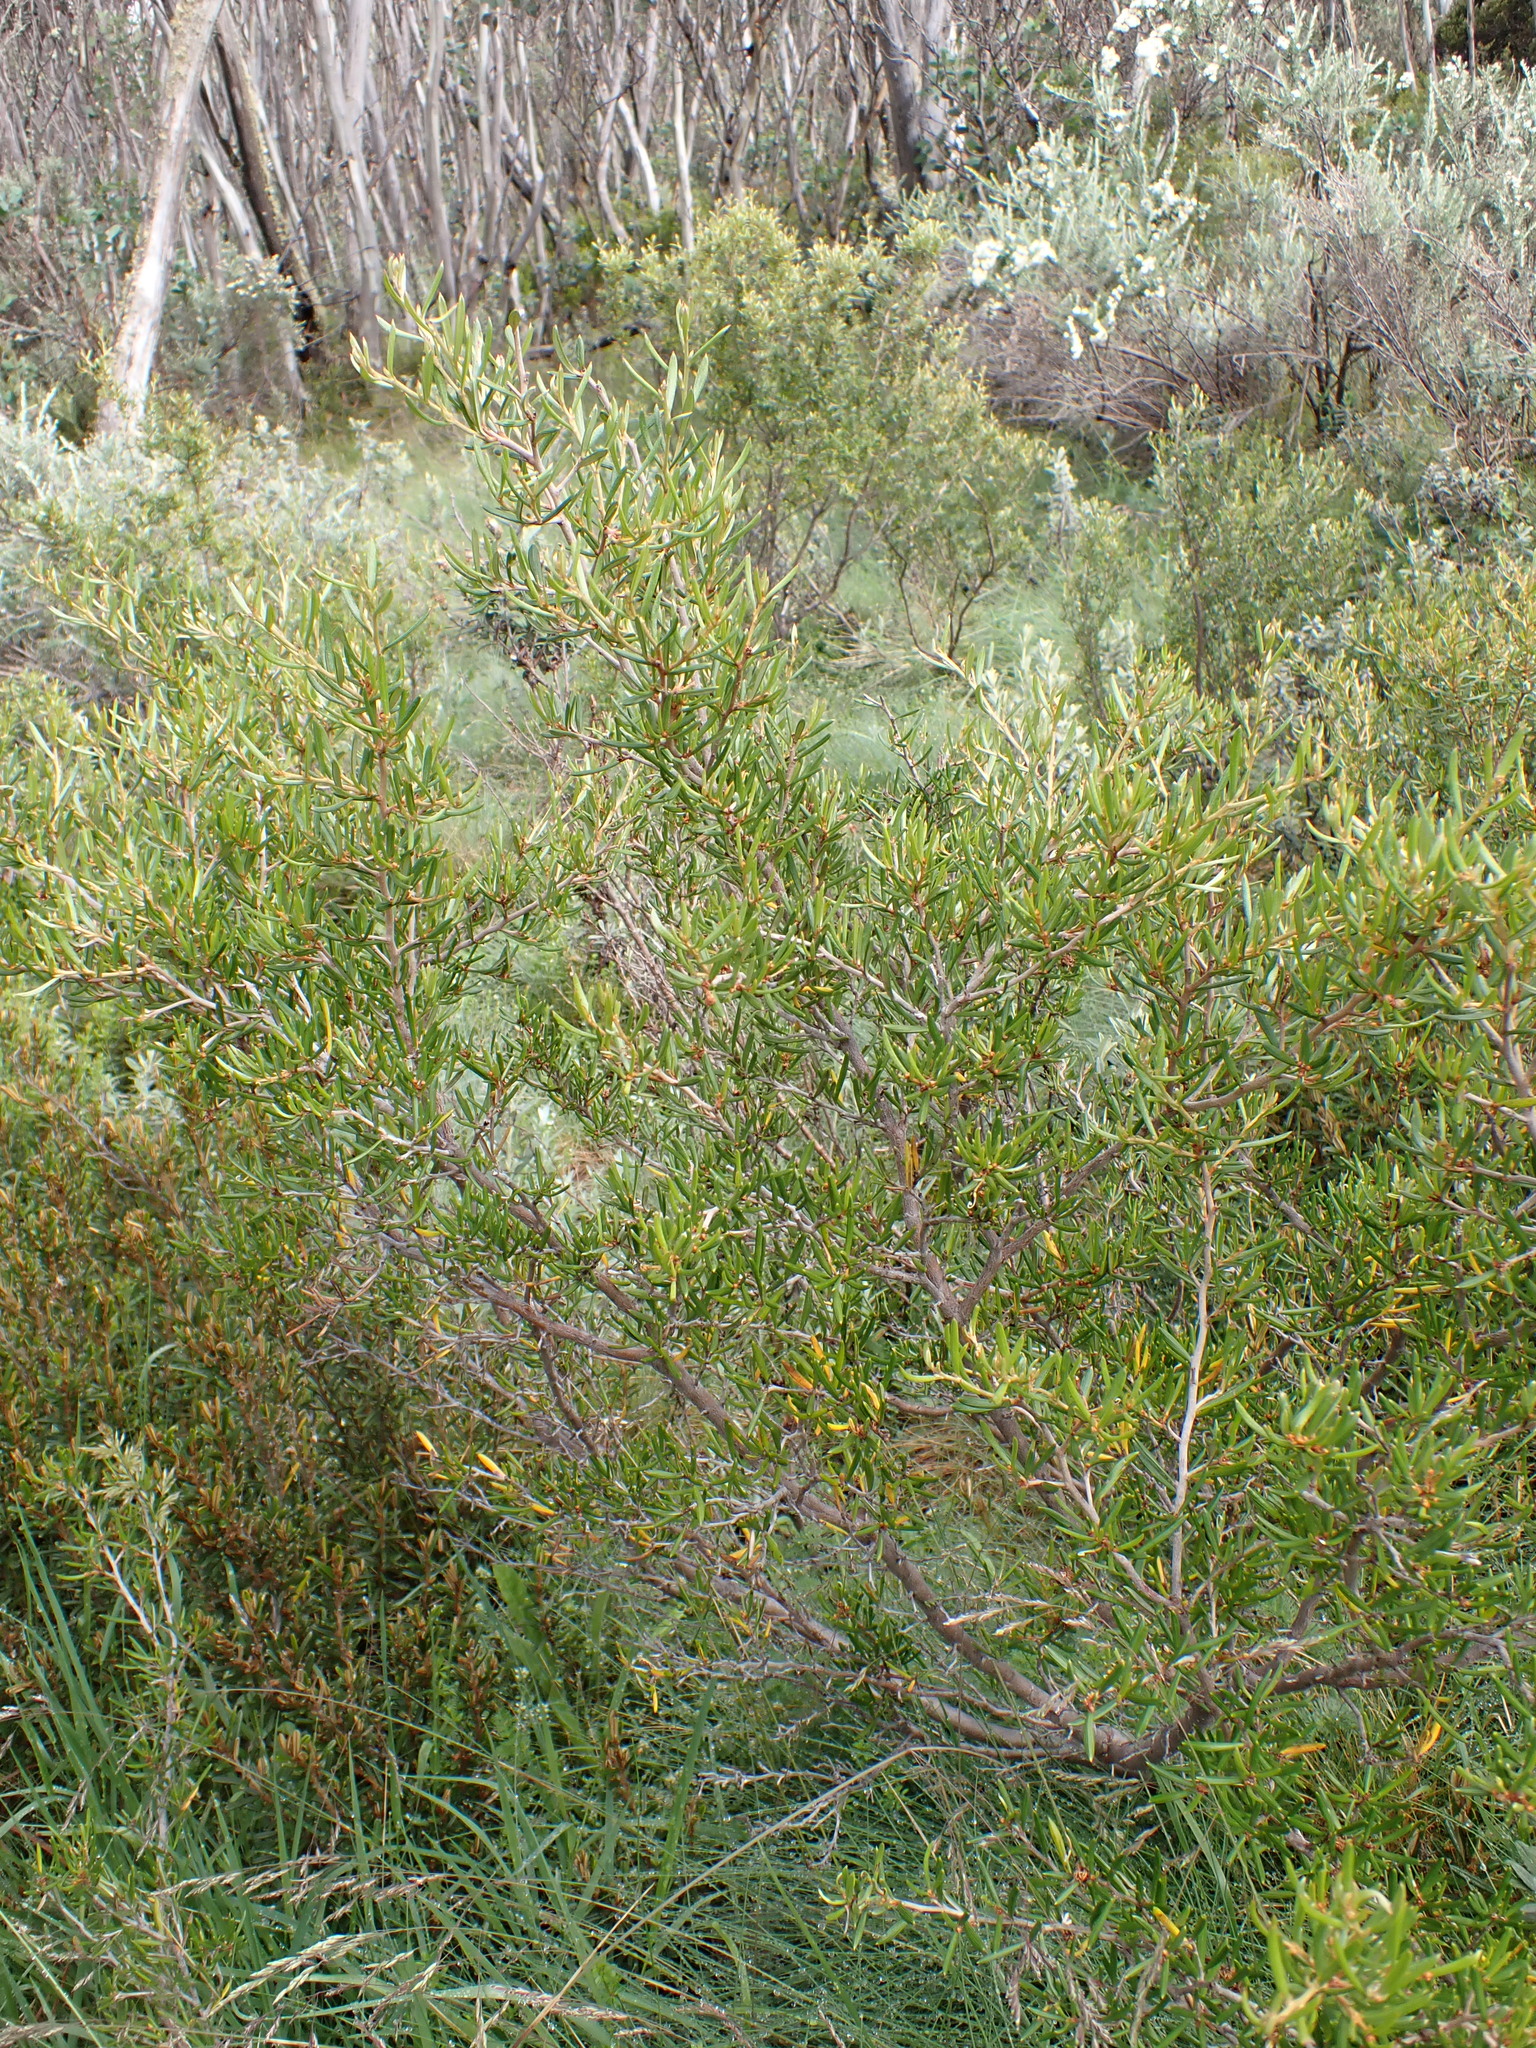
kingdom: Plantae
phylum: Tracheophyta
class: Magnoliopsida
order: Proteales
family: Proteaceae
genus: Grevillea
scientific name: Grevillea australis
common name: Alpine grevillea
